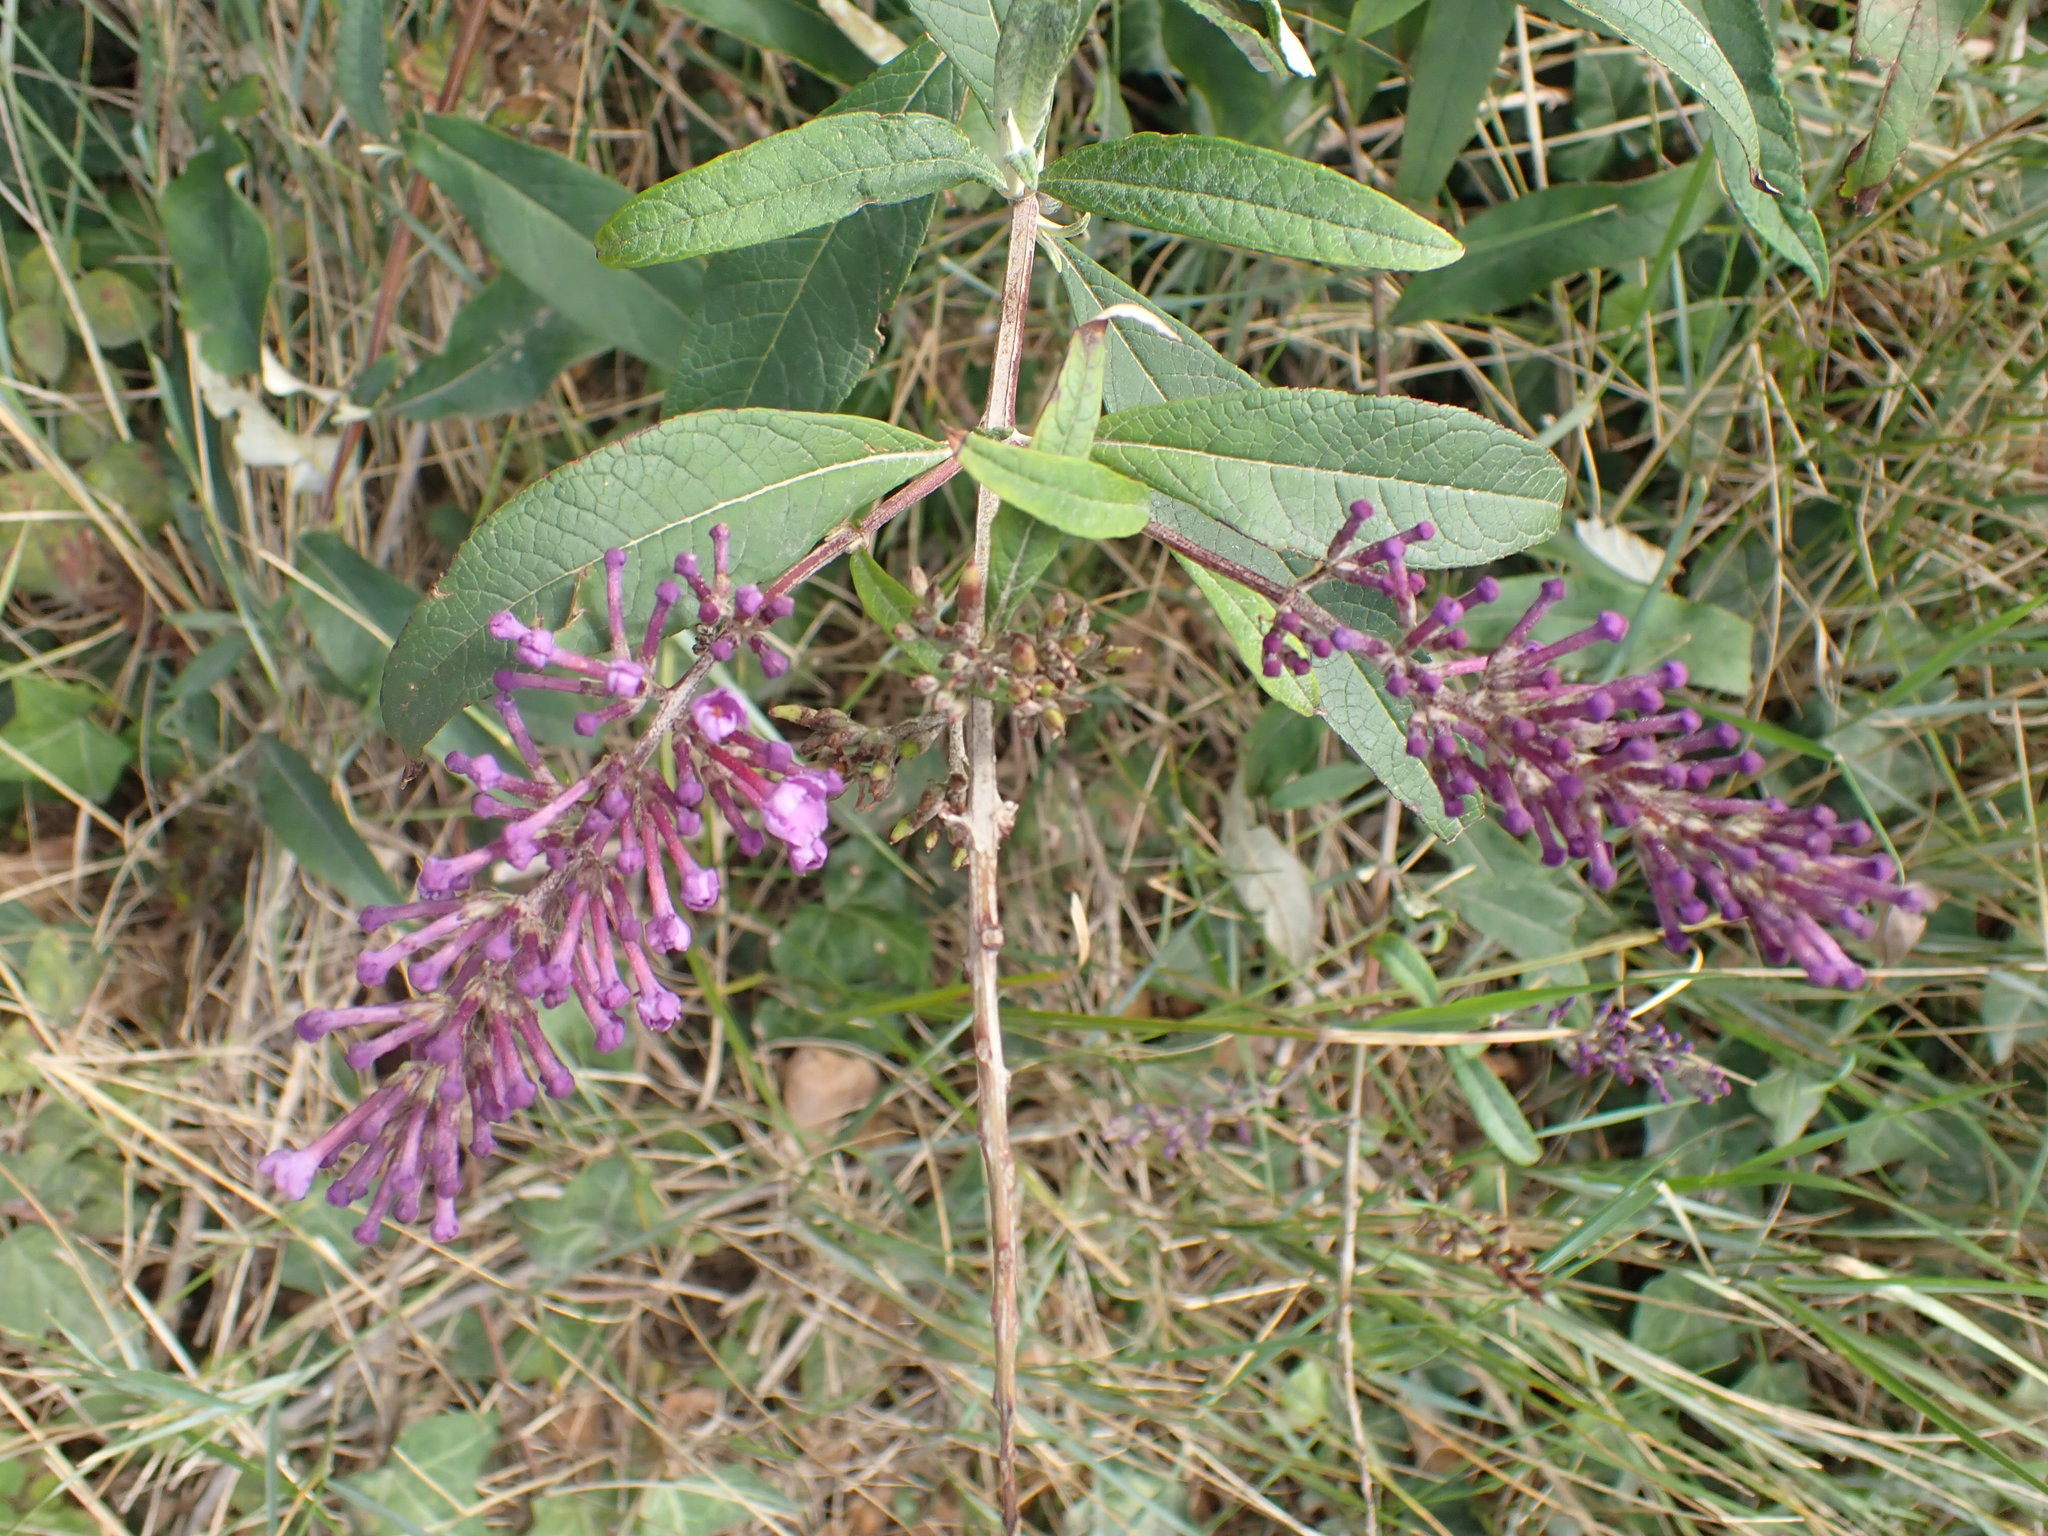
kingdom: Plantae
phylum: Tracheophyta
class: Magnoliopsida
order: Lamiales
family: Scrophulariaceae
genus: Buddleja
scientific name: Buddleja davidii
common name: Butterfly-bush
